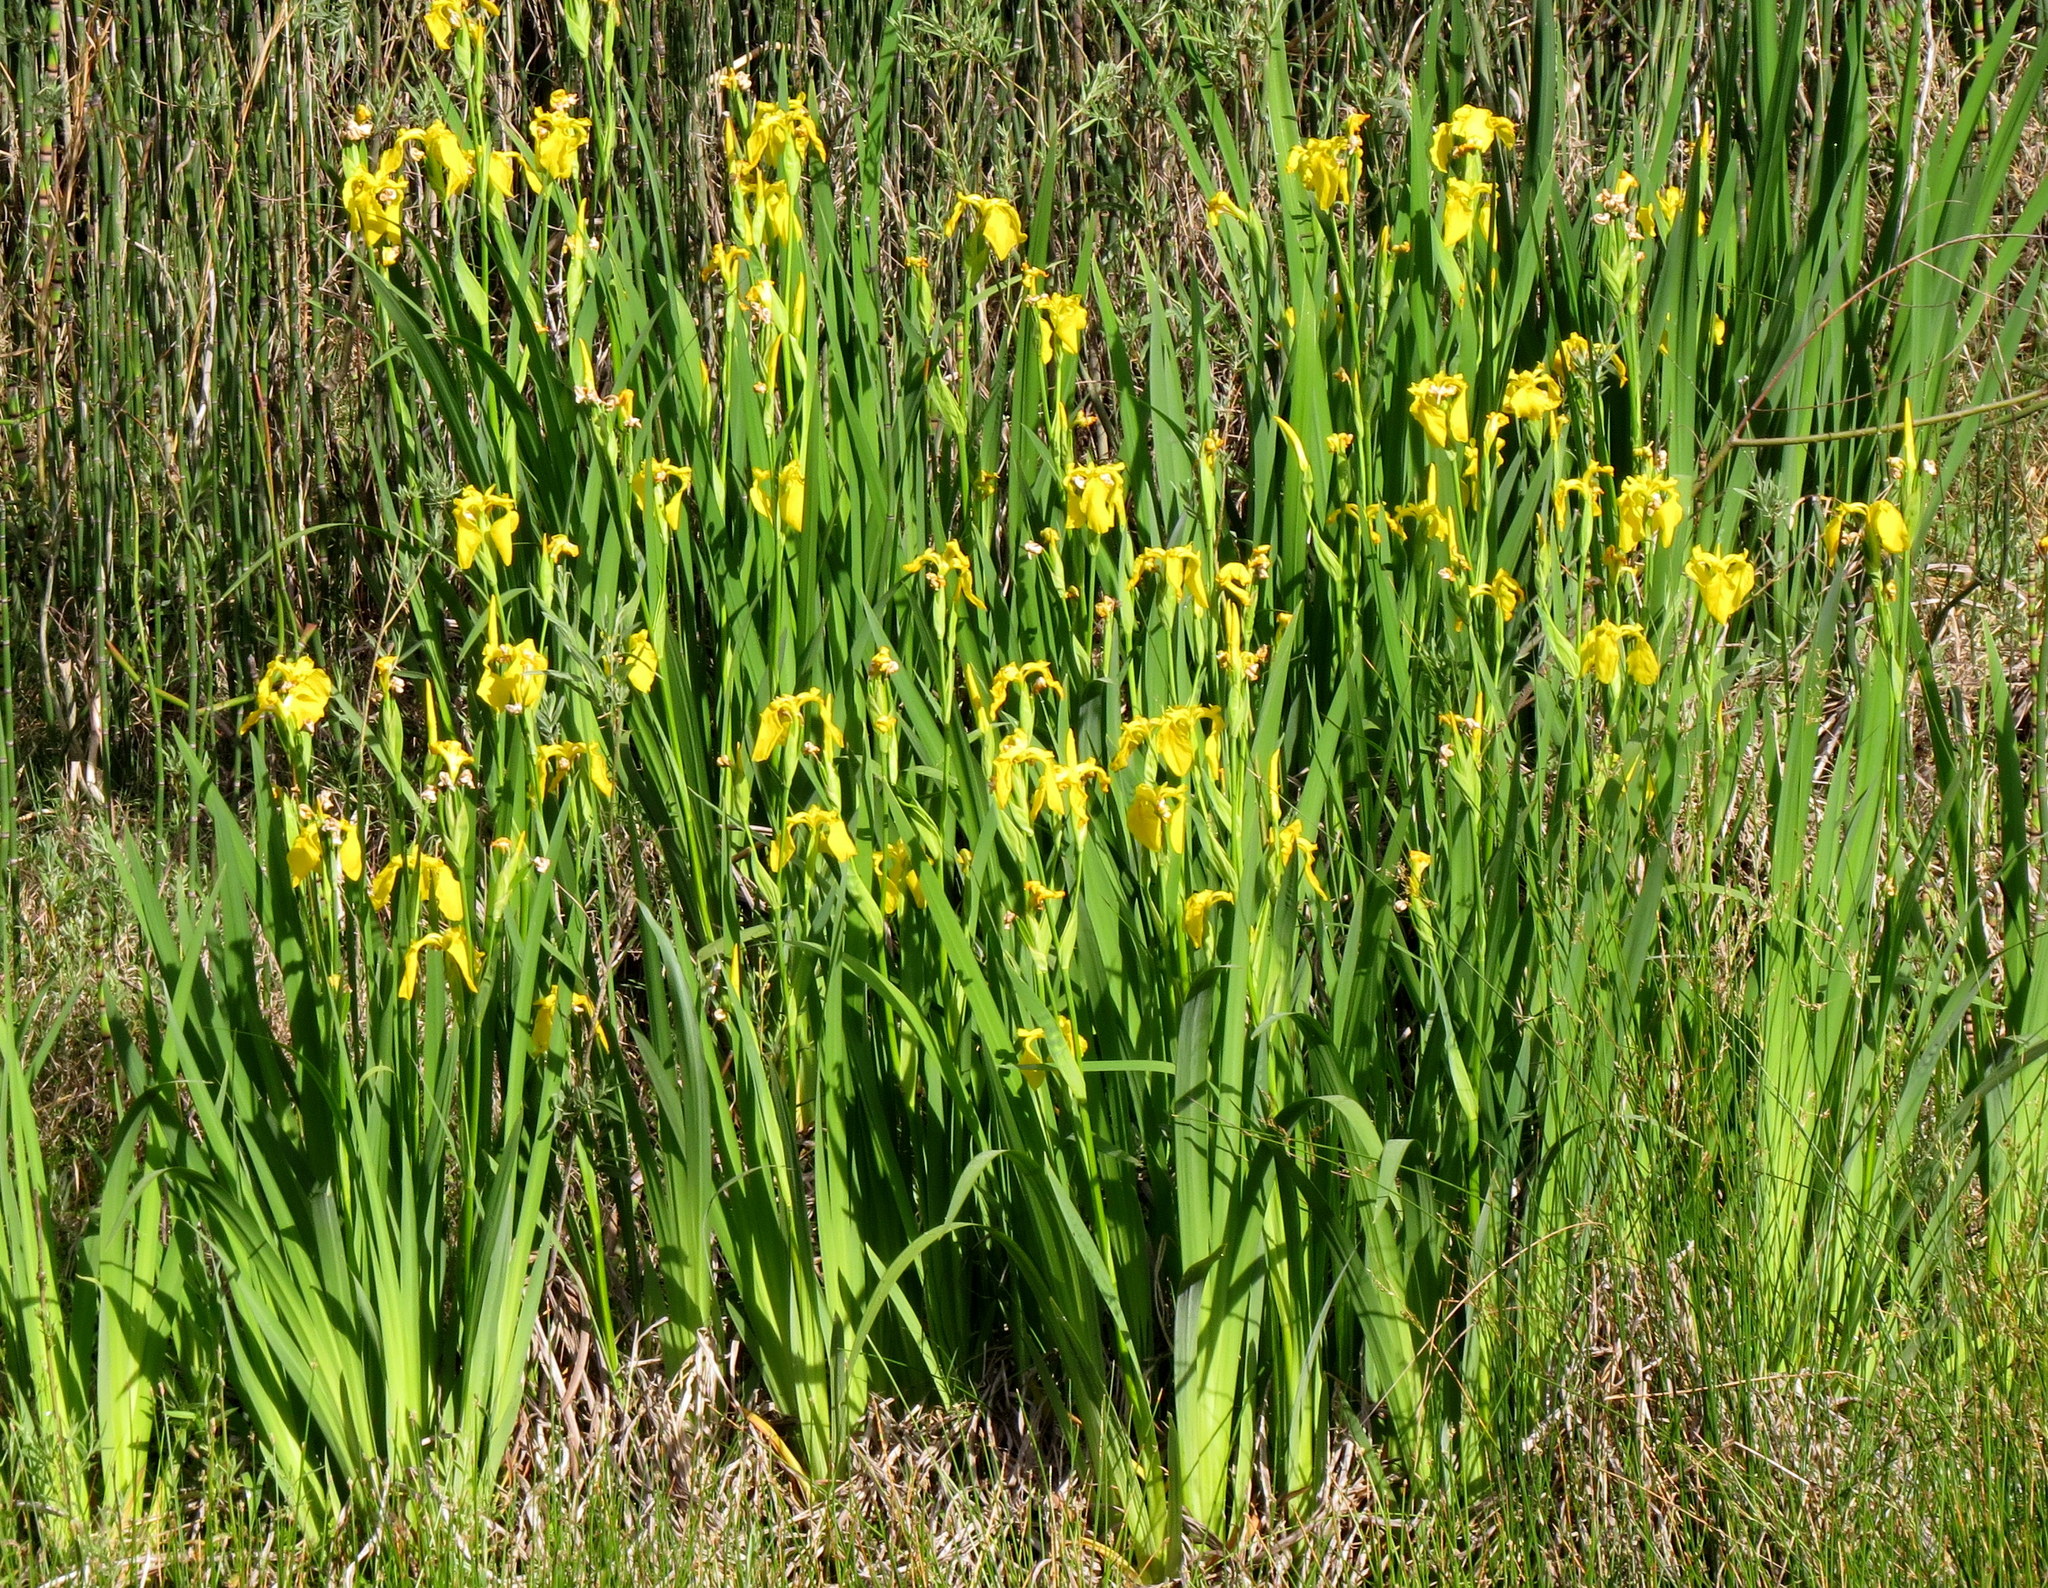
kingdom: Plantae
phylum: Tracheophyta
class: Liliopsida
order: Asparagales
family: Iridaceae
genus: Iris
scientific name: Iris pseudacorus
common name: Yellow flag
